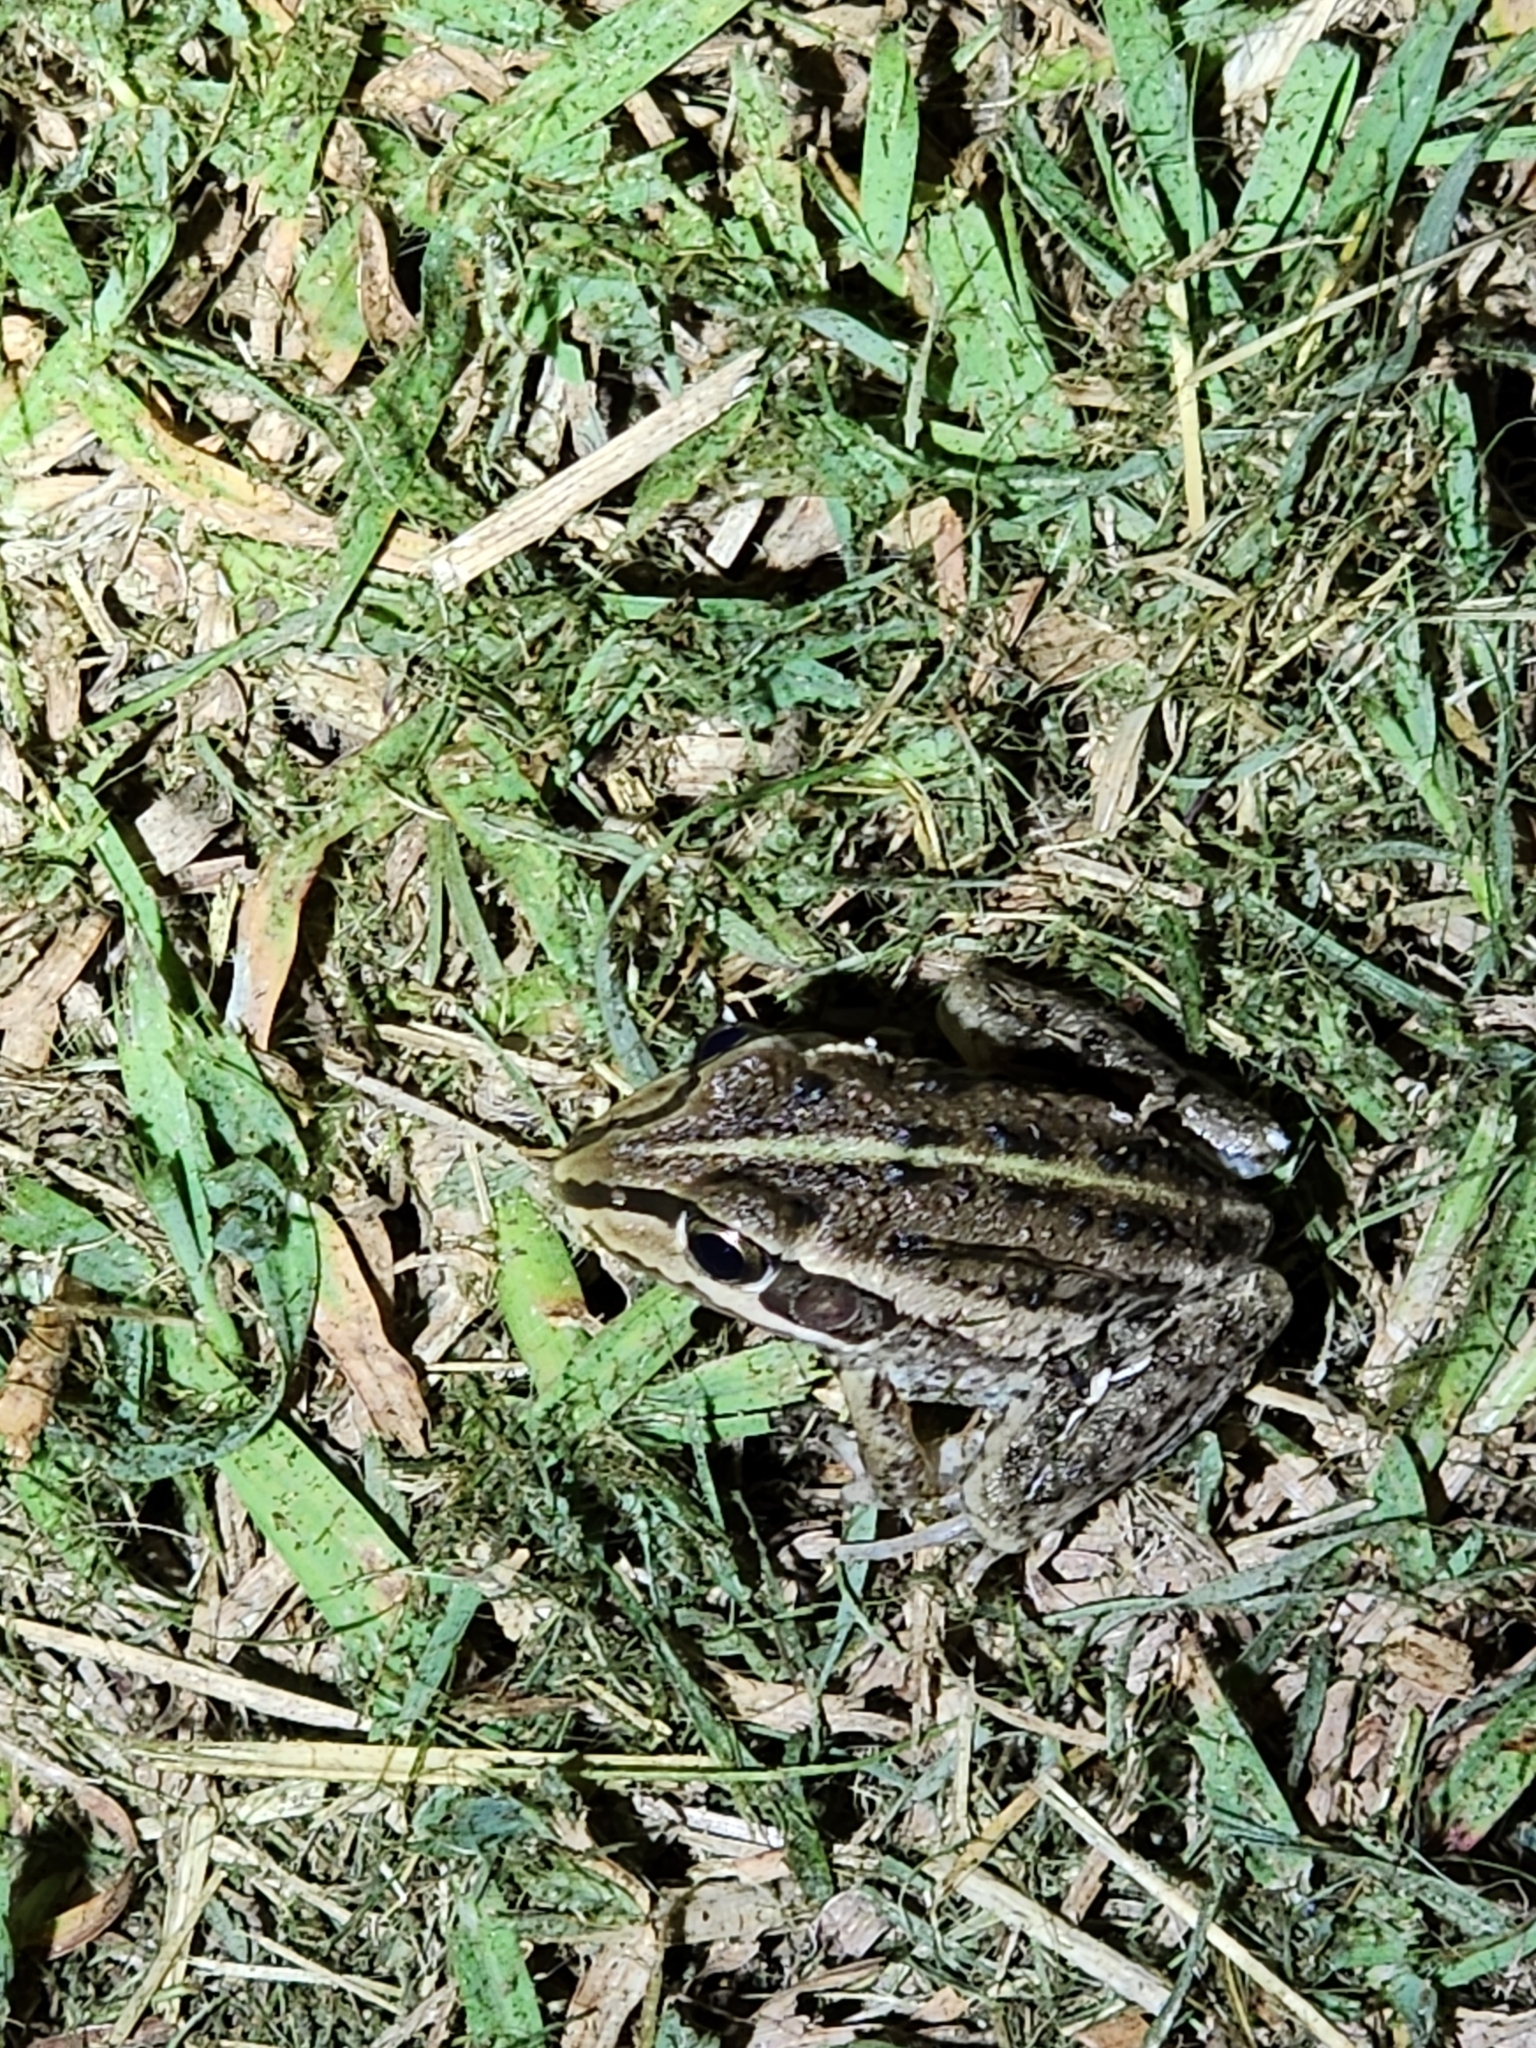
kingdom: Animalia
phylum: Chordata
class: Amphibia
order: Anura
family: Pelodryadidae
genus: Ranoidea
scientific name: Ranoidea alboguttata
